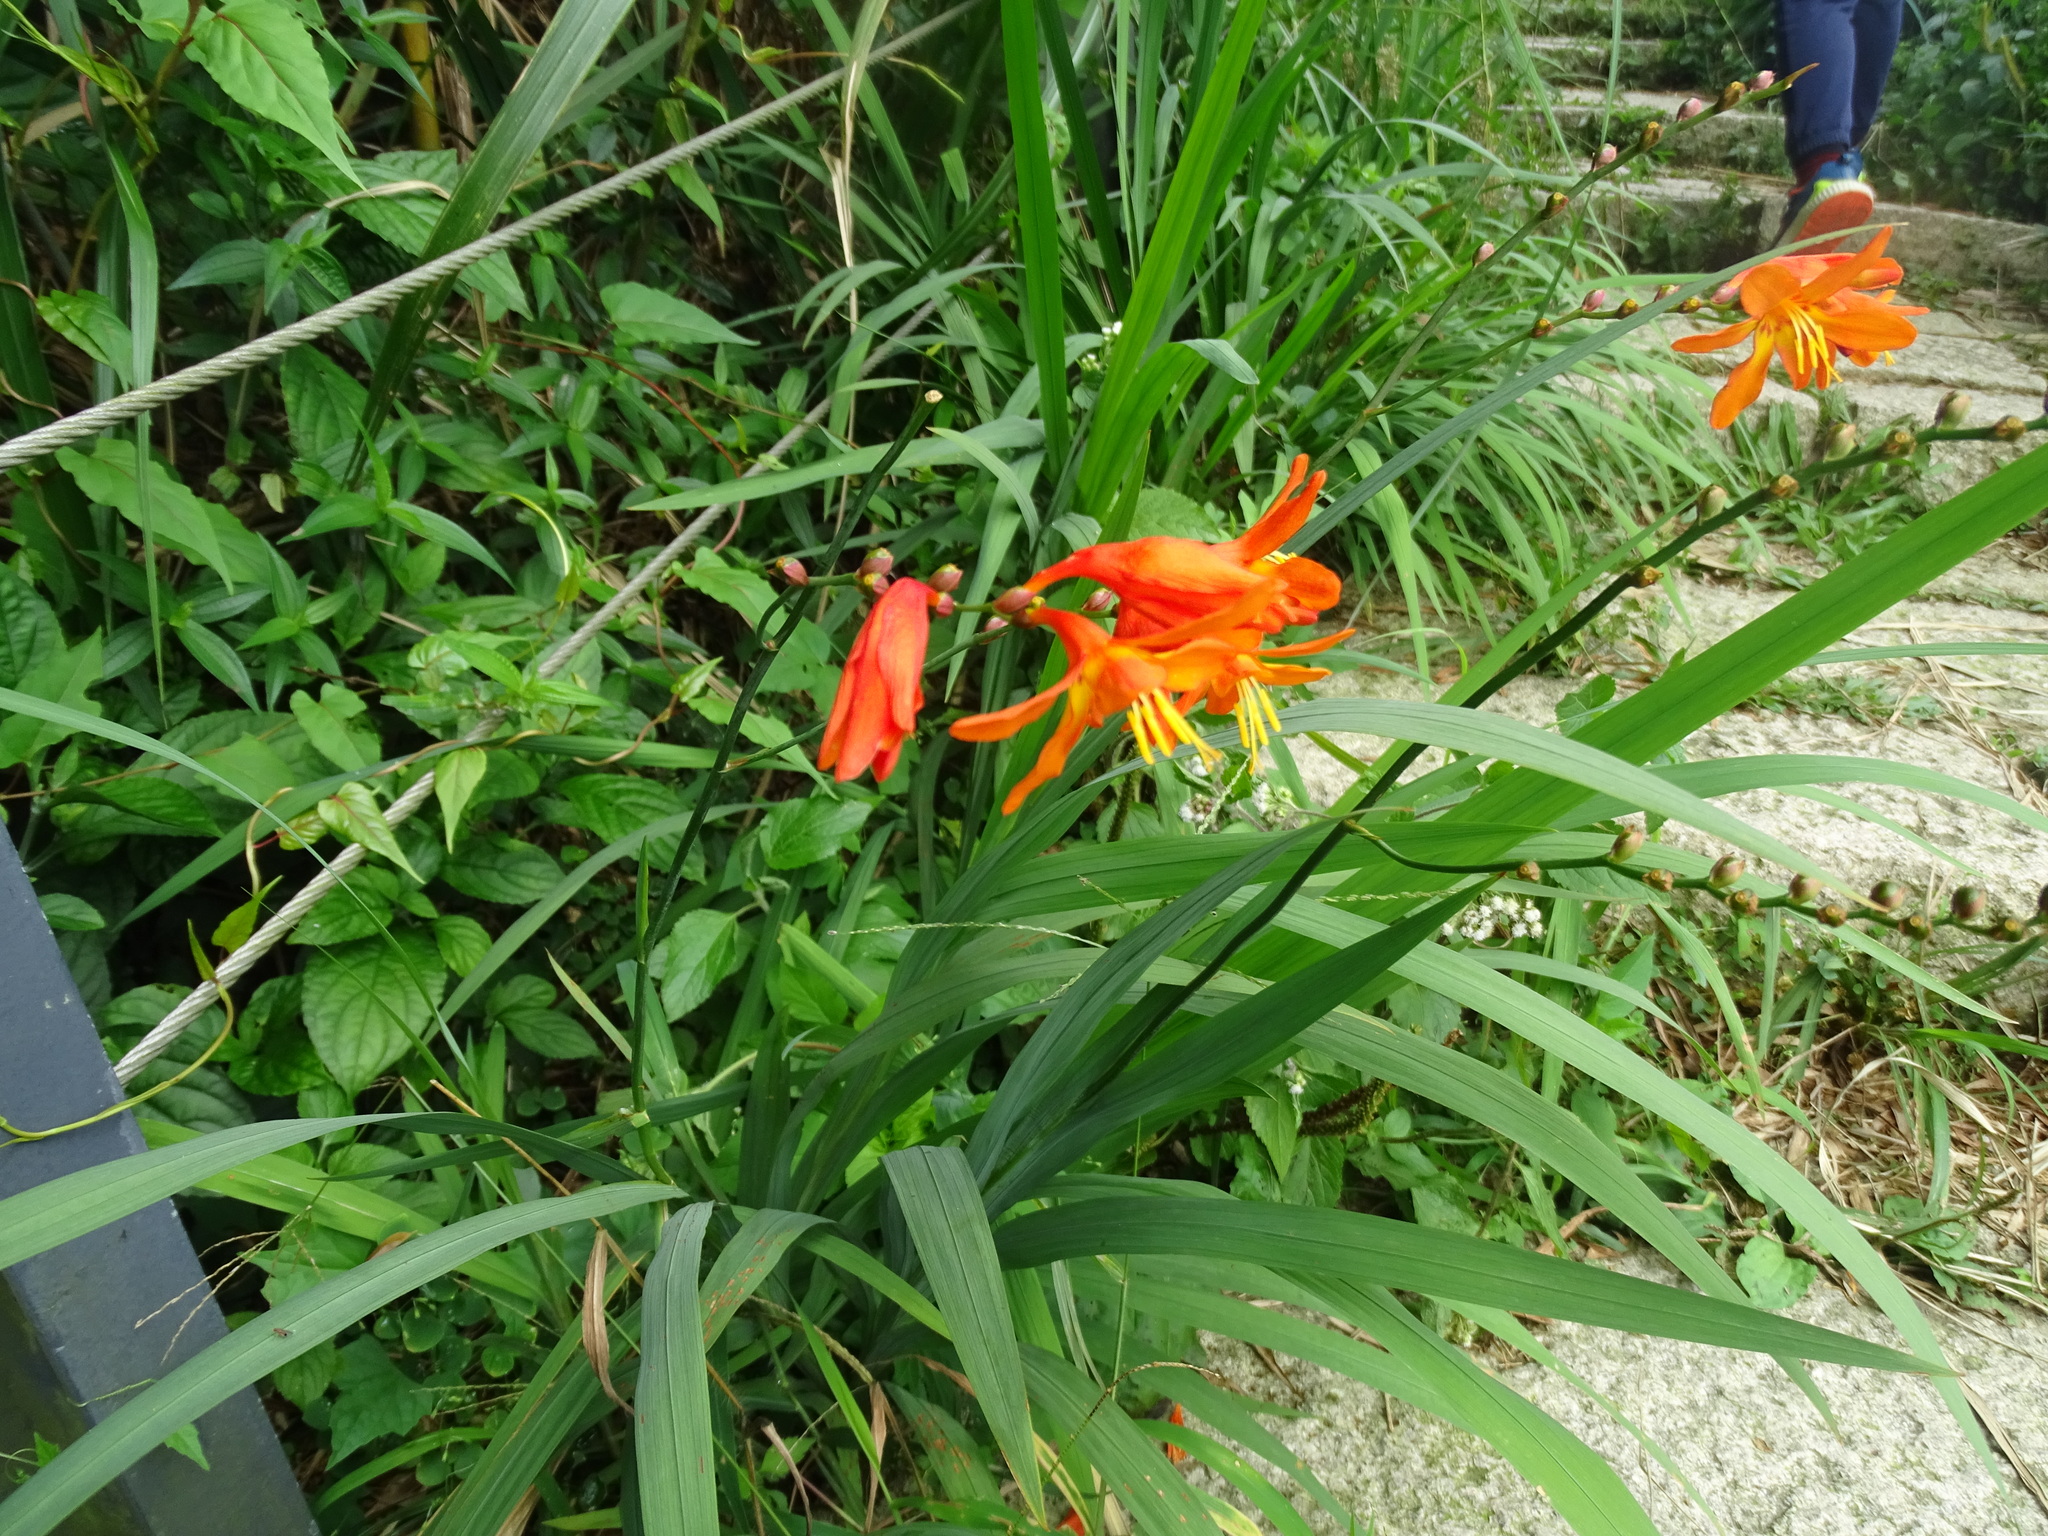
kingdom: Plantae
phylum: Tracheophyta
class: Liliopsida
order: Asparagales
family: Iridaceae
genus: Crocosmia
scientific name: Crocosmia crocosmiiflora
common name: Montbretia
